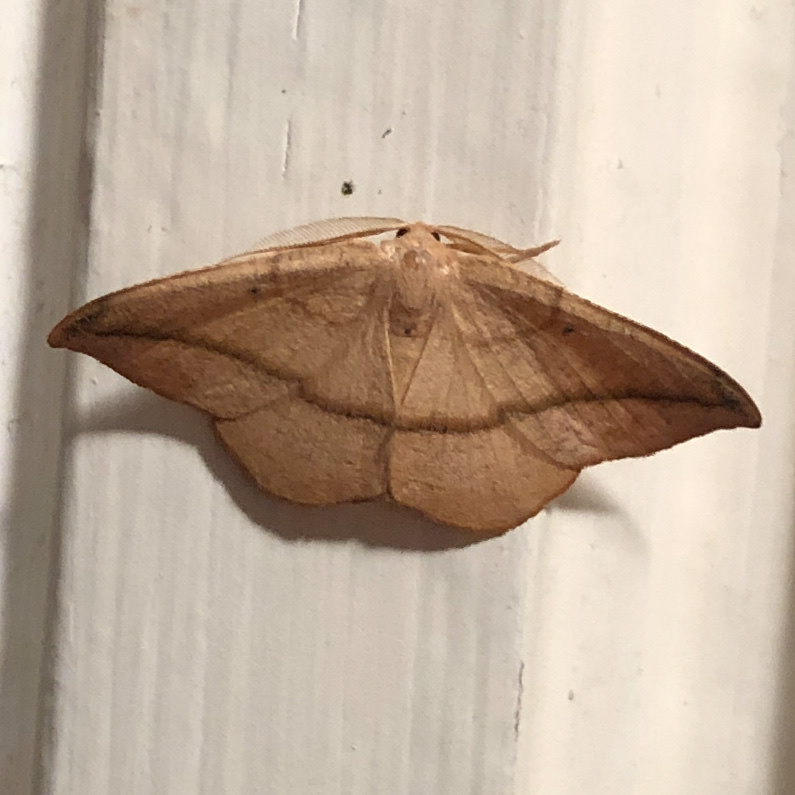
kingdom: Animalia
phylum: Arthropoda
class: Insecta
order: Lepidoptera
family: Geometridae
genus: Patalene
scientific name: Patalene olyzonaria
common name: Juniper geometer moth
